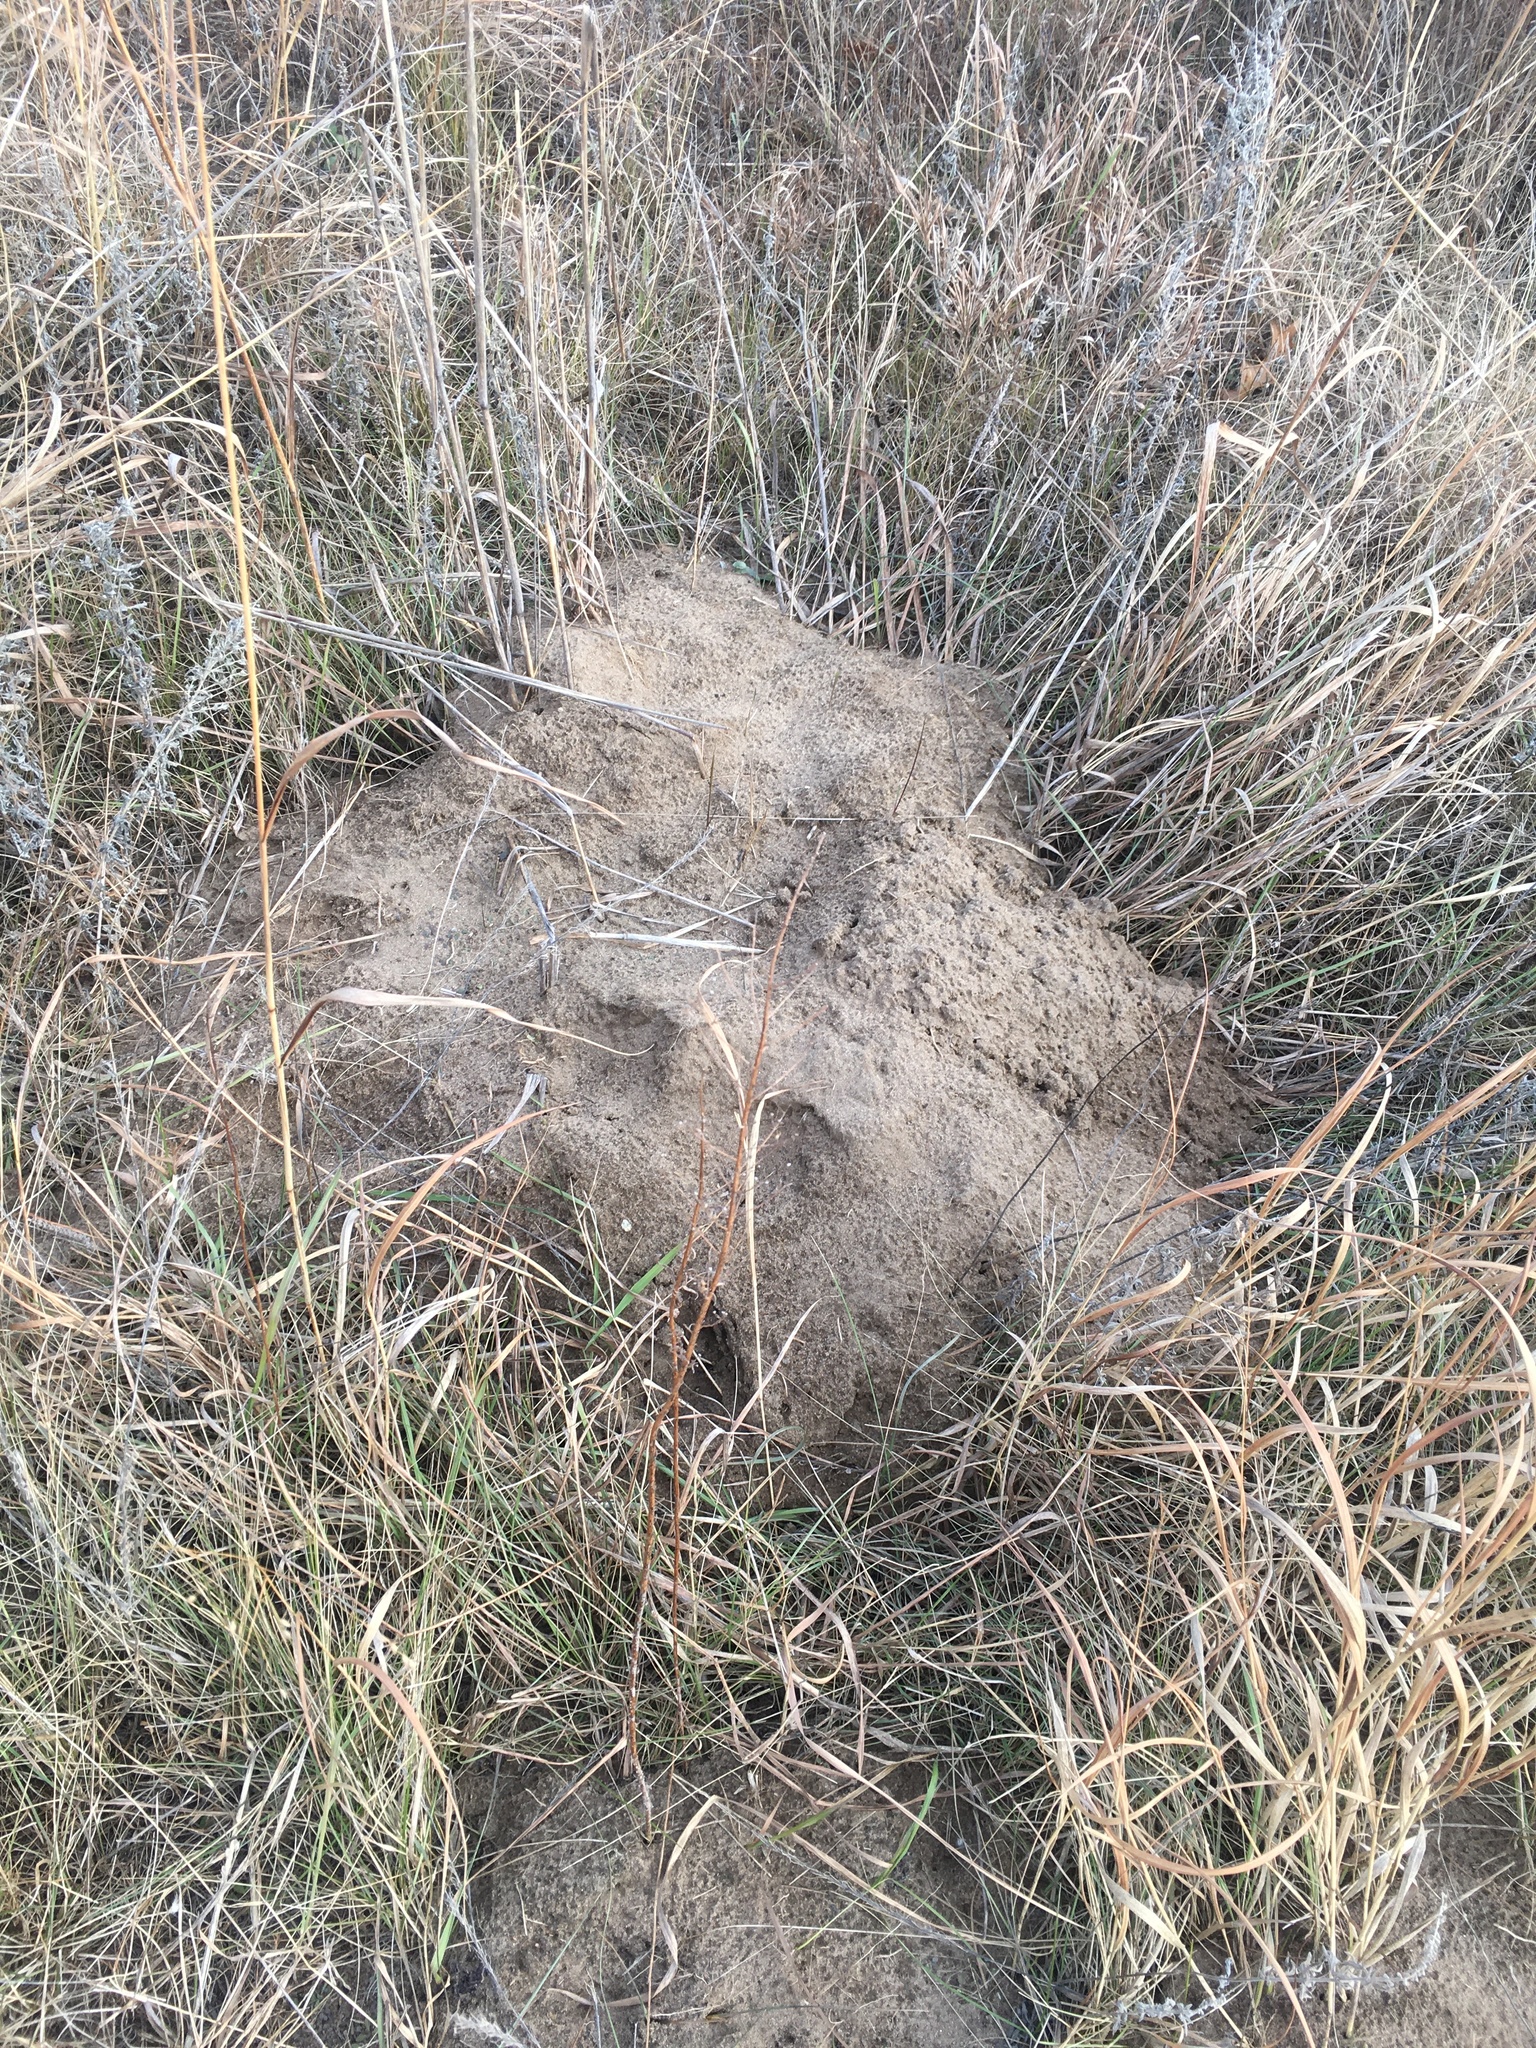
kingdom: Animalia
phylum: Chordata
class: Mammalia
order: Rodentia
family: Geomyidae
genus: Geomys
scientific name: Geomys bursarius
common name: Plains pocket gopher
